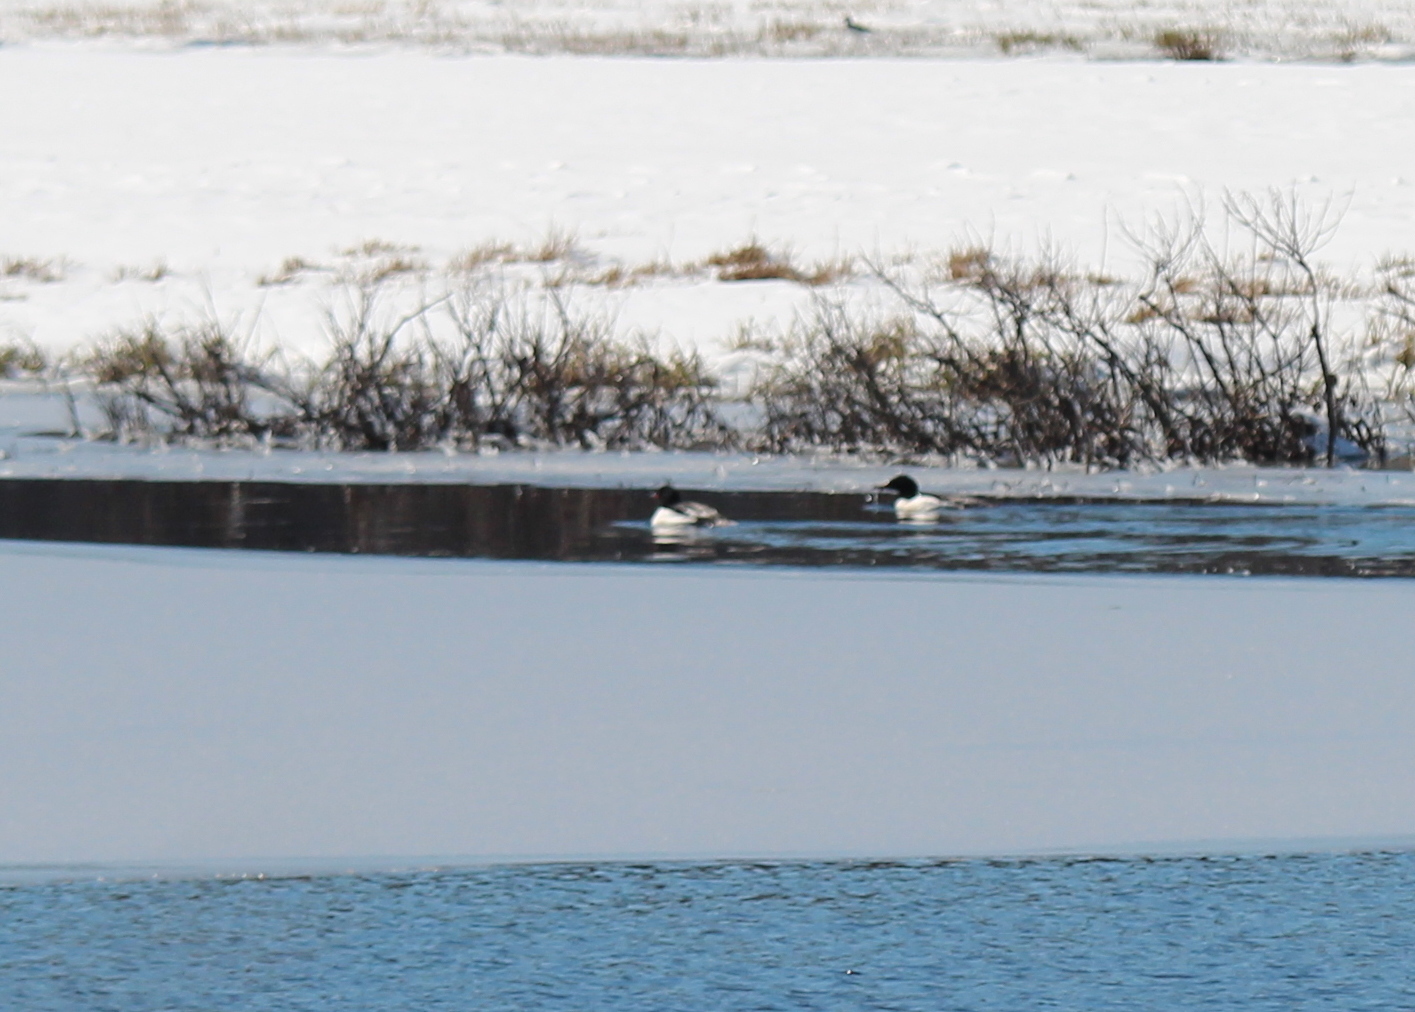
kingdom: Animalia
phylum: Chordata
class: Aves
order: Anseriformes
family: Anatidae
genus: Mergus
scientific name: Mergus merganser
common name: Common merganser
